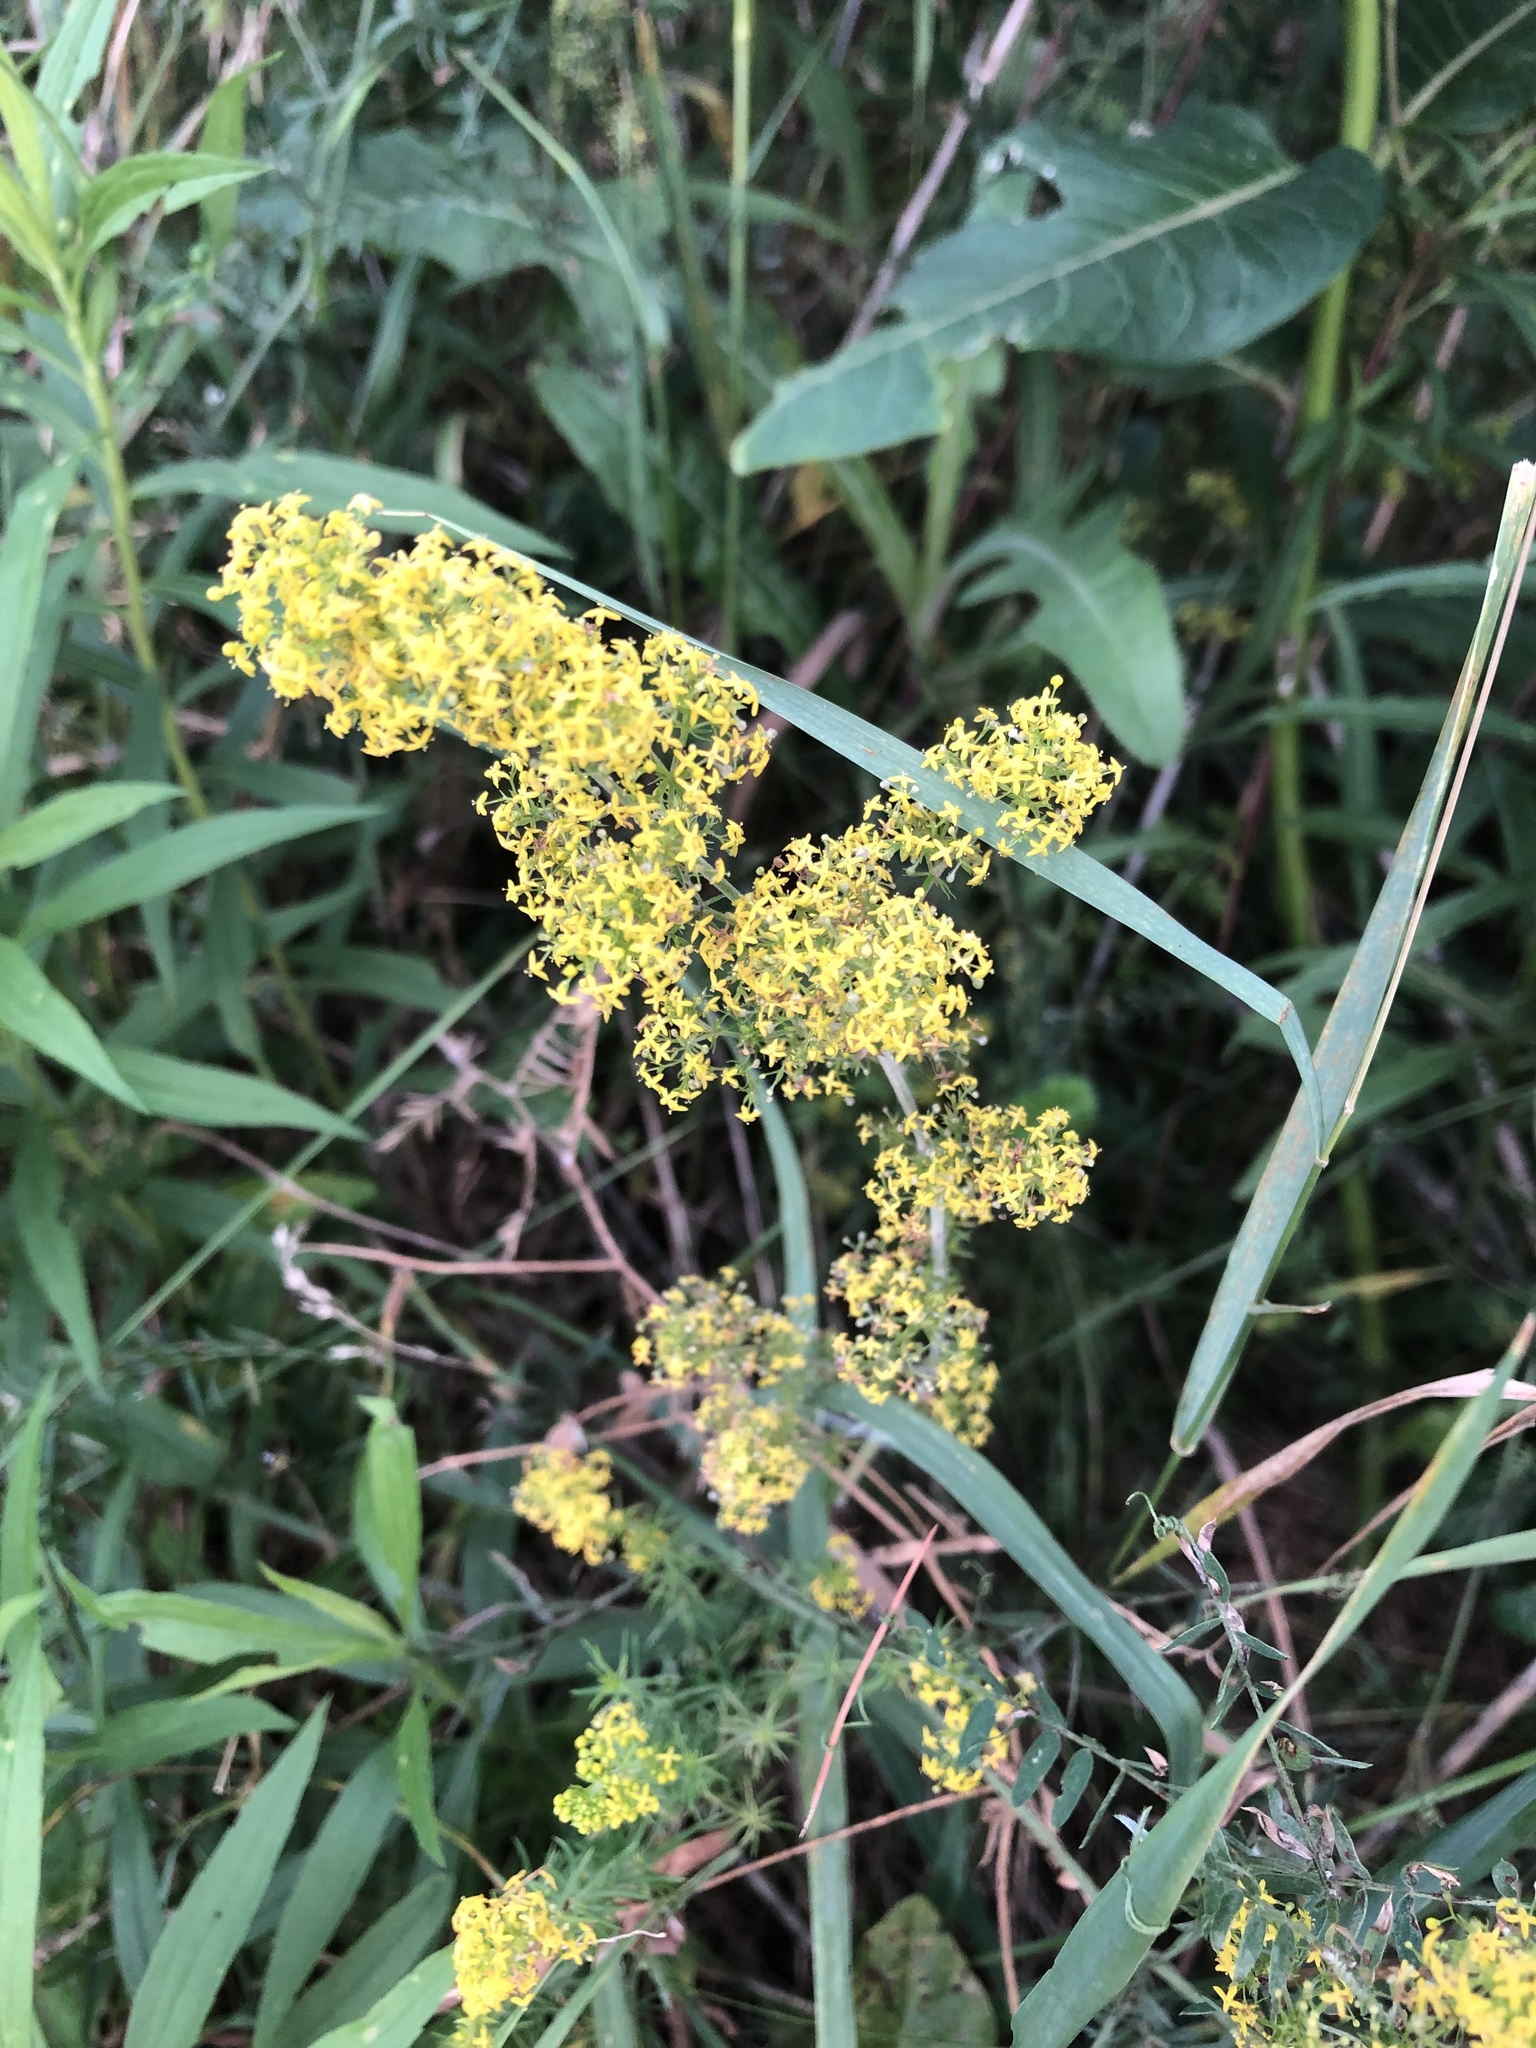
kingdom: Plantae
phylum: Tracheophyta
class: Magnoliopsida
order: Gentianales
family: Rubiaceae
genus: Galium
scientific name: Galium verum
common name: Lady's bedstraw
